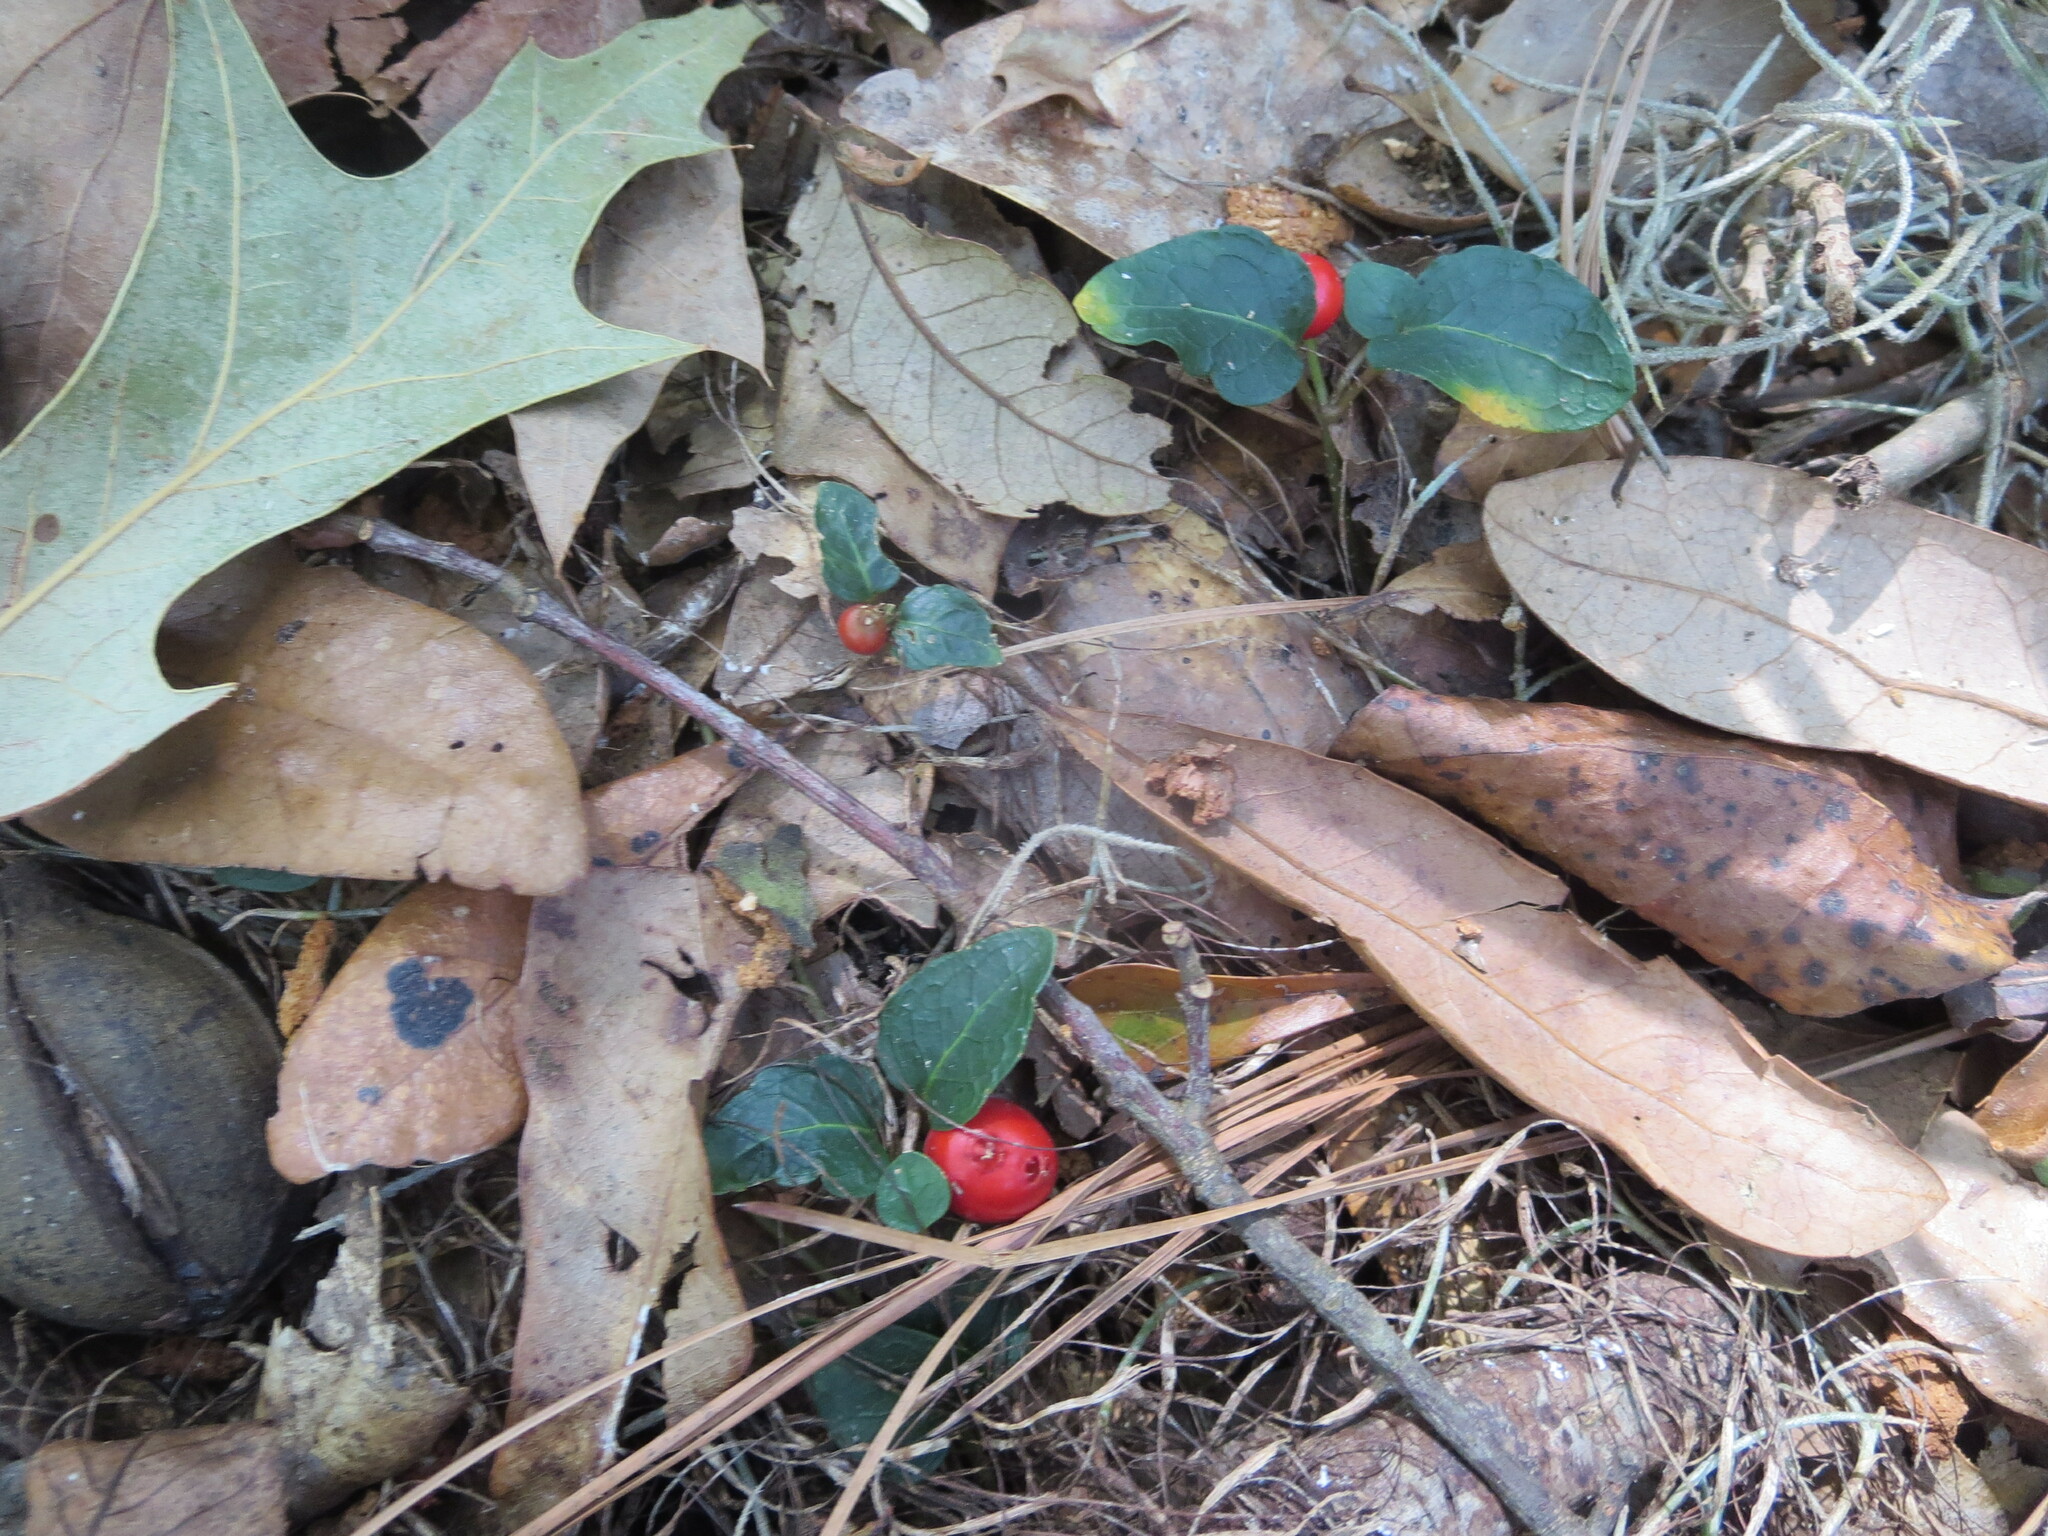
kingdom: Plantae
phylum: Tracheophyta
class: Magnoliopsida
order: Gentianales
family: Rubiaceae
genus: Mitchella
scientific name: Mitchella repens
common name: Partridge-berry
